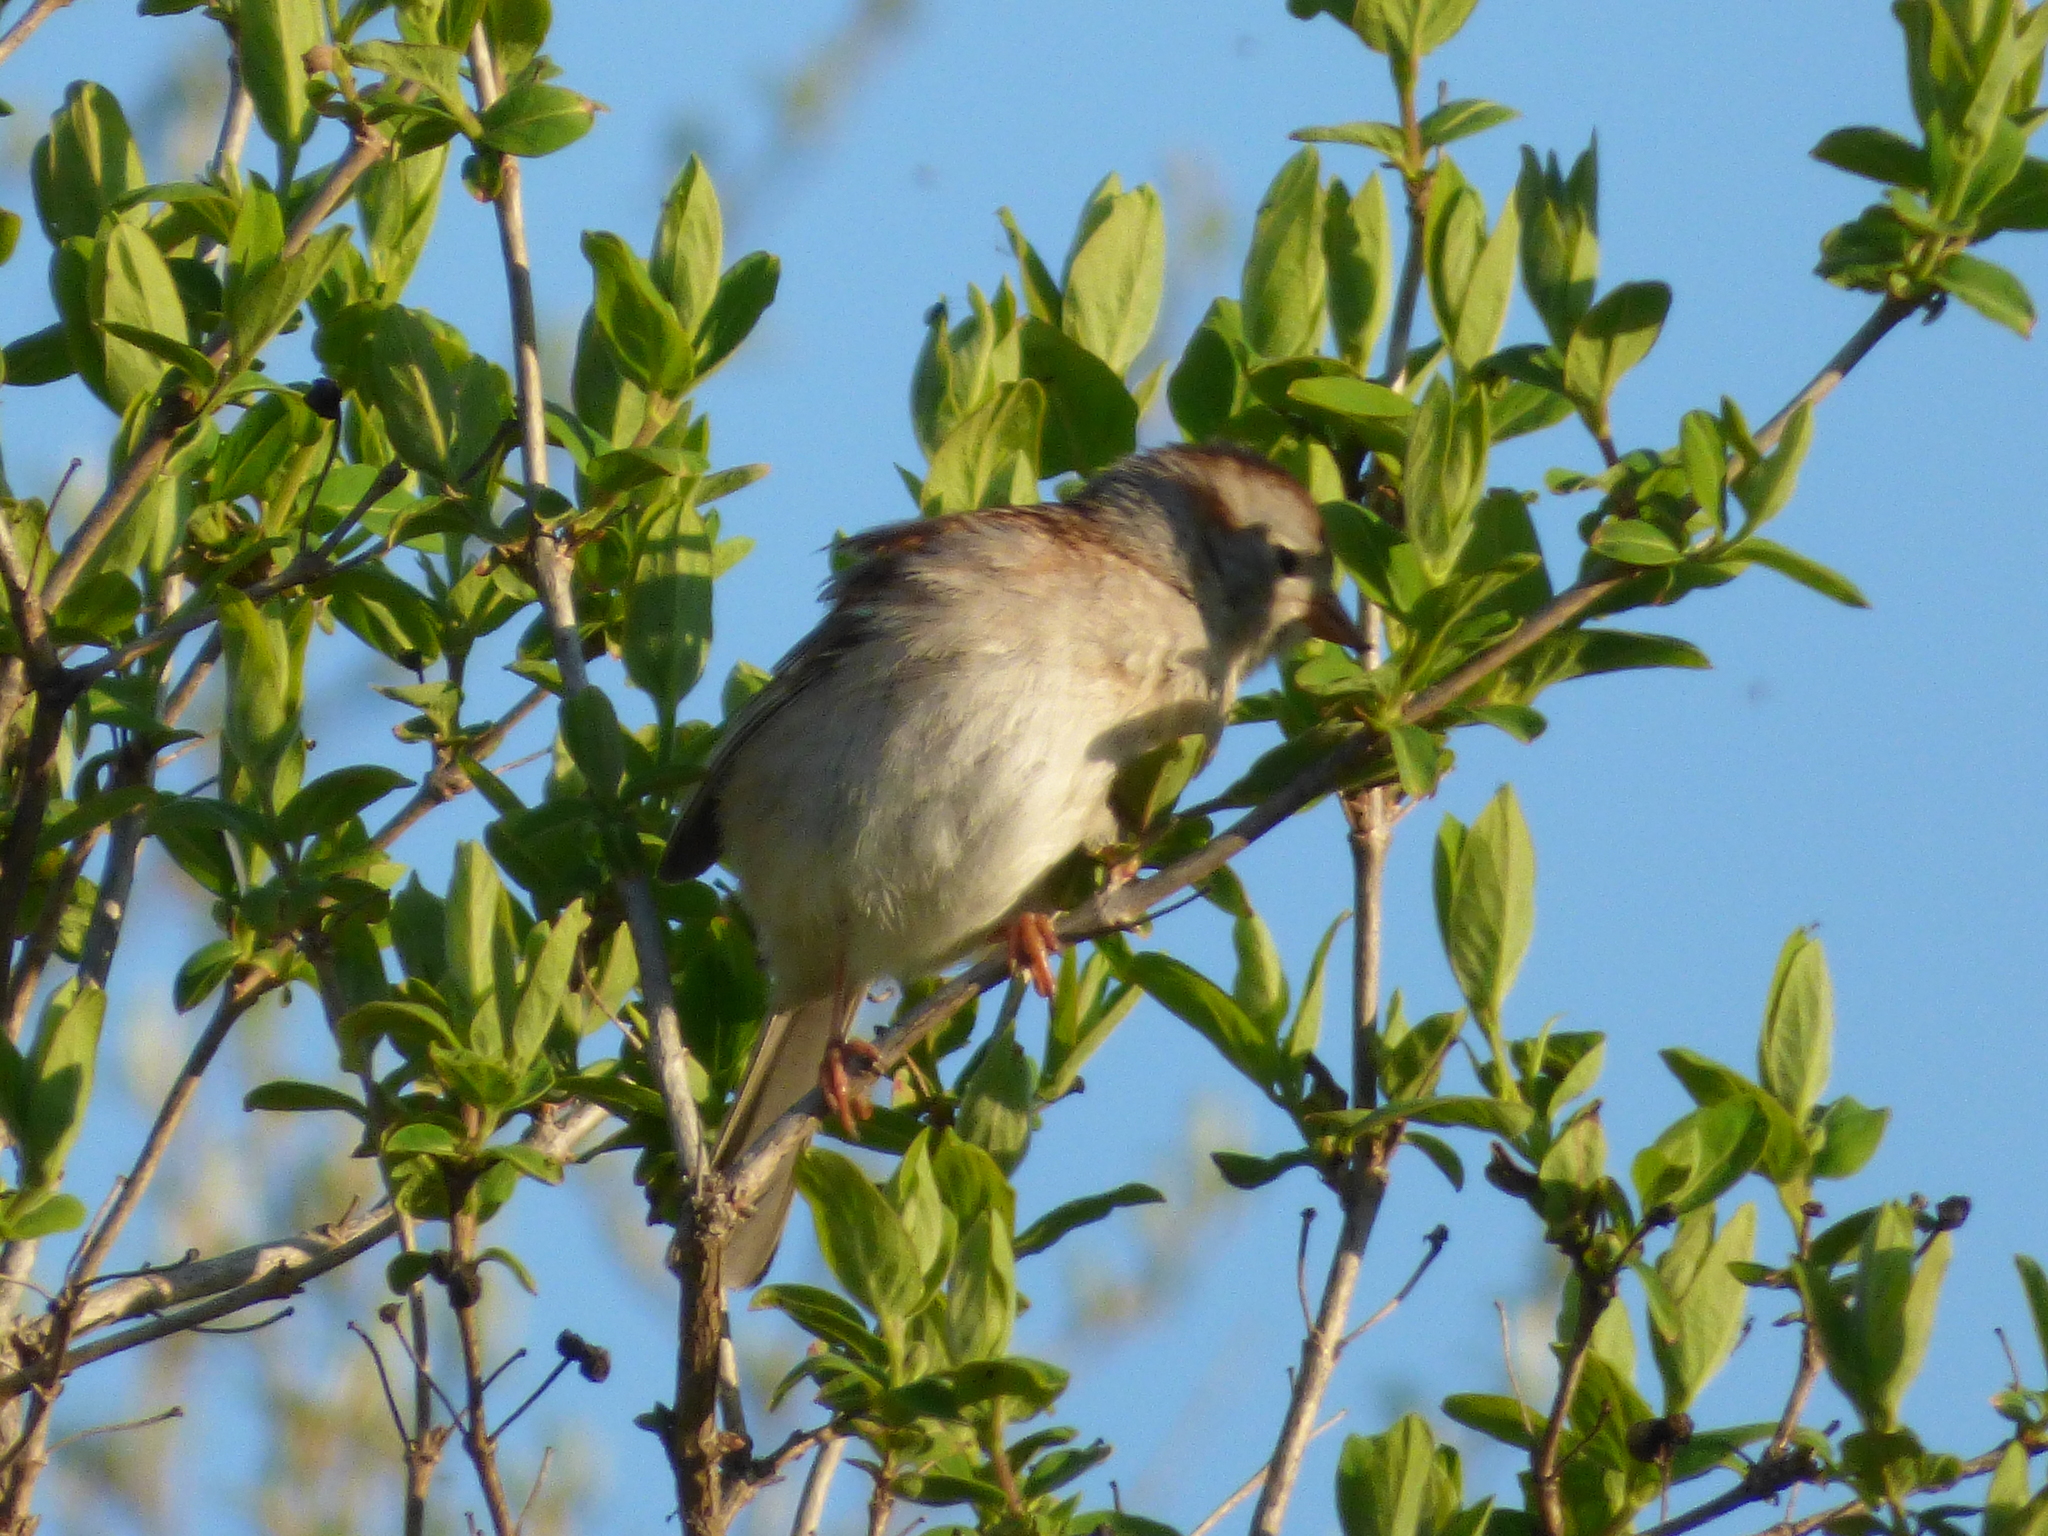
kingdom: Animalia
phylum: Chordata
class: Aves
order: Passeriformes
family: Passerellidae
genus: Spizella
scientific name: Spizella pusilla
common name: Field sparrow
